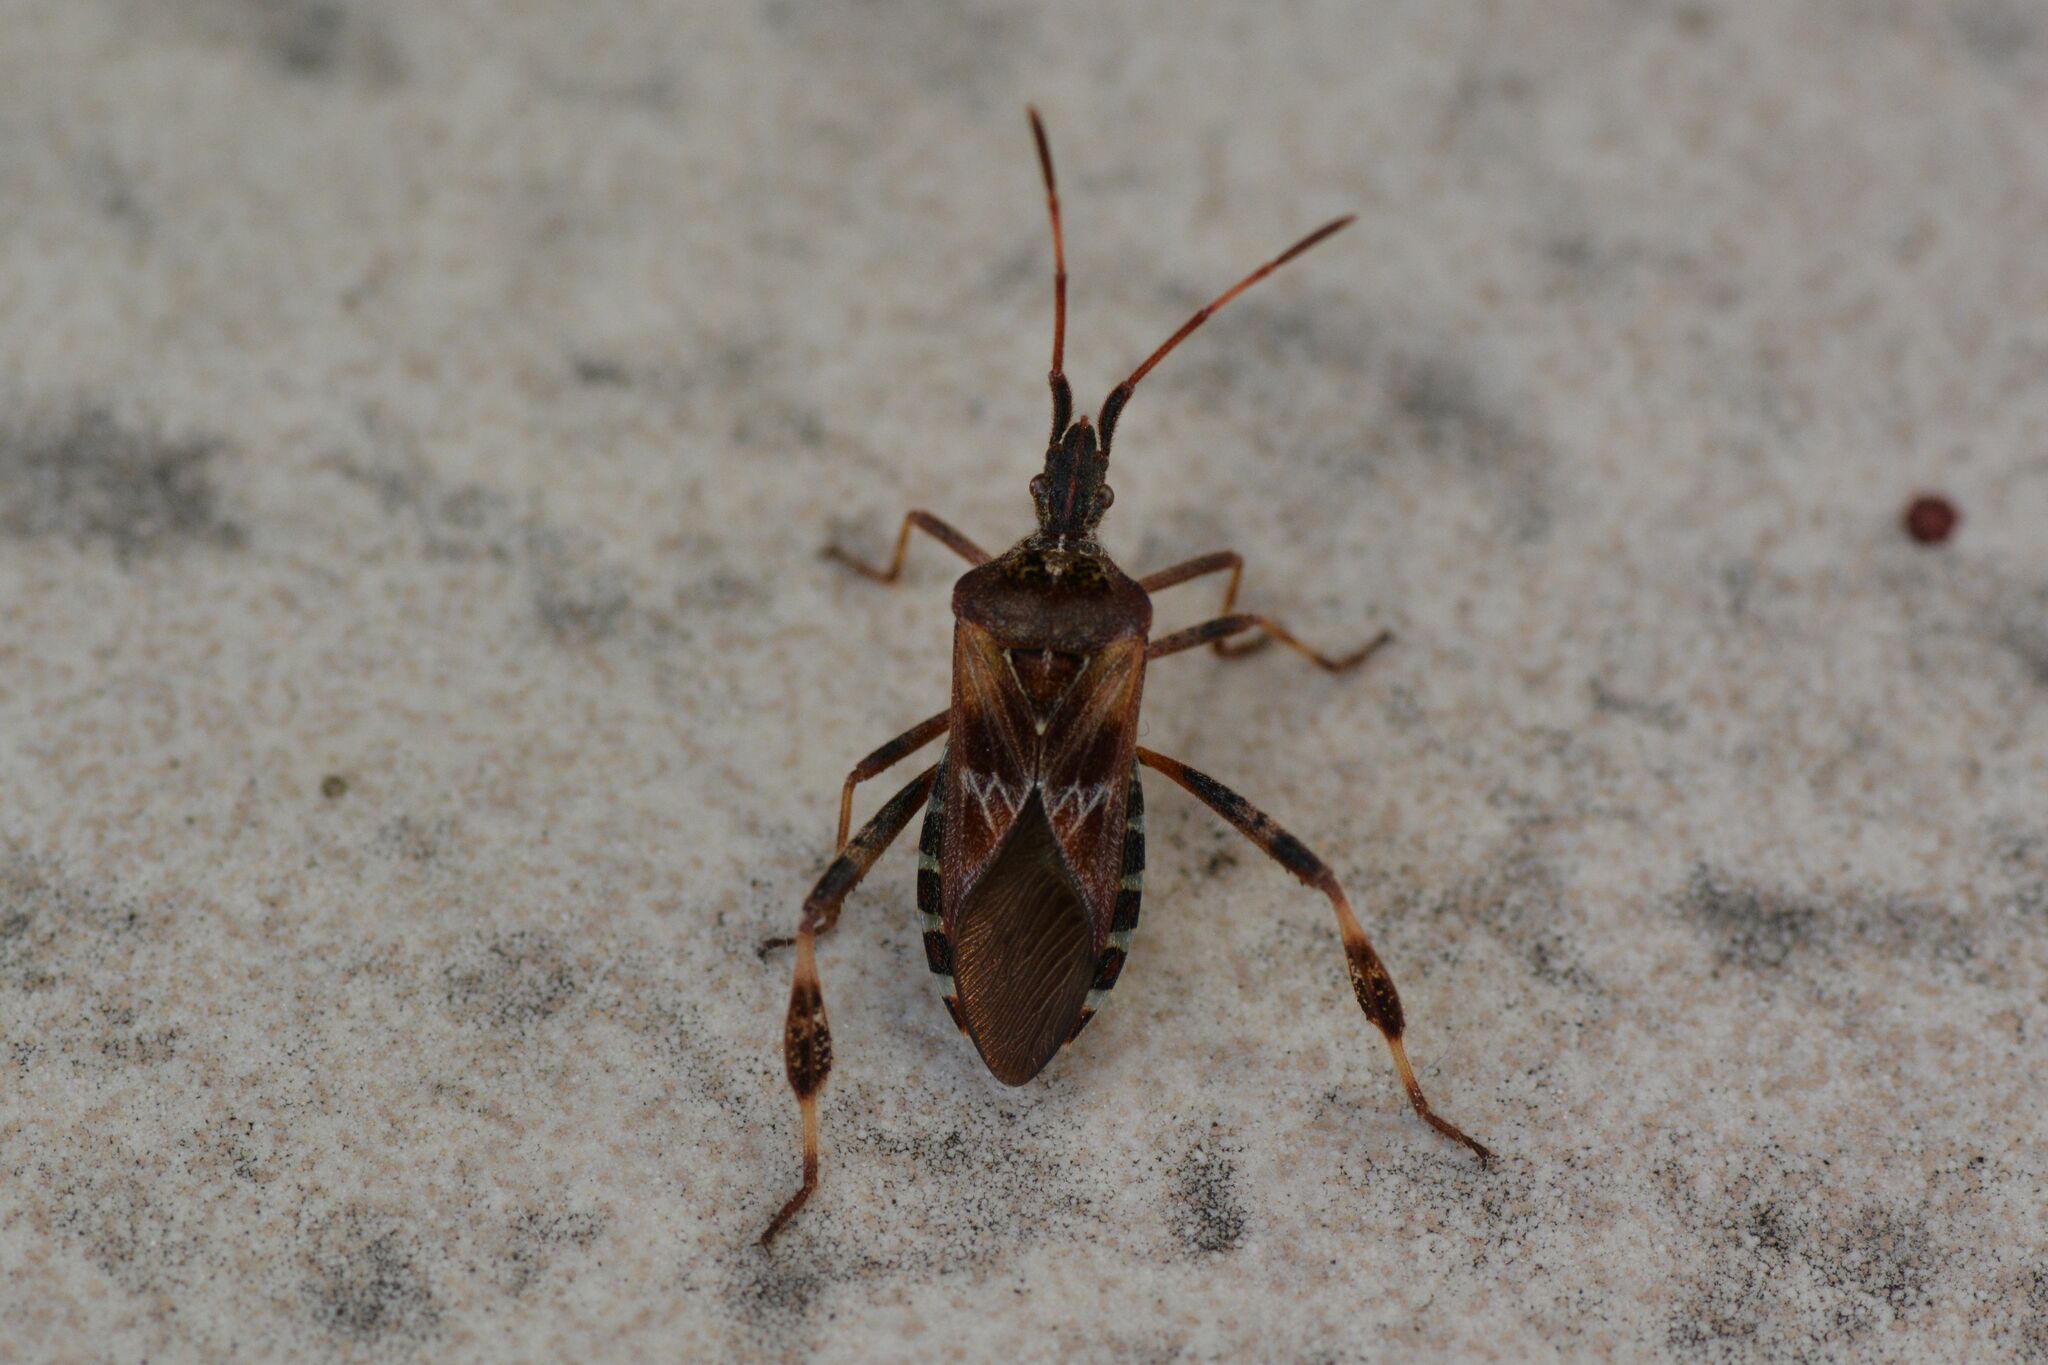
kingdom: Animalia
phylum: Arthropoda
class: Insecta
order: Hemiptera
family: Coreidae
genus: Leptoglossus
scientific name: Leptoglossus occidentalis
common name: Western conifer-seed bug
